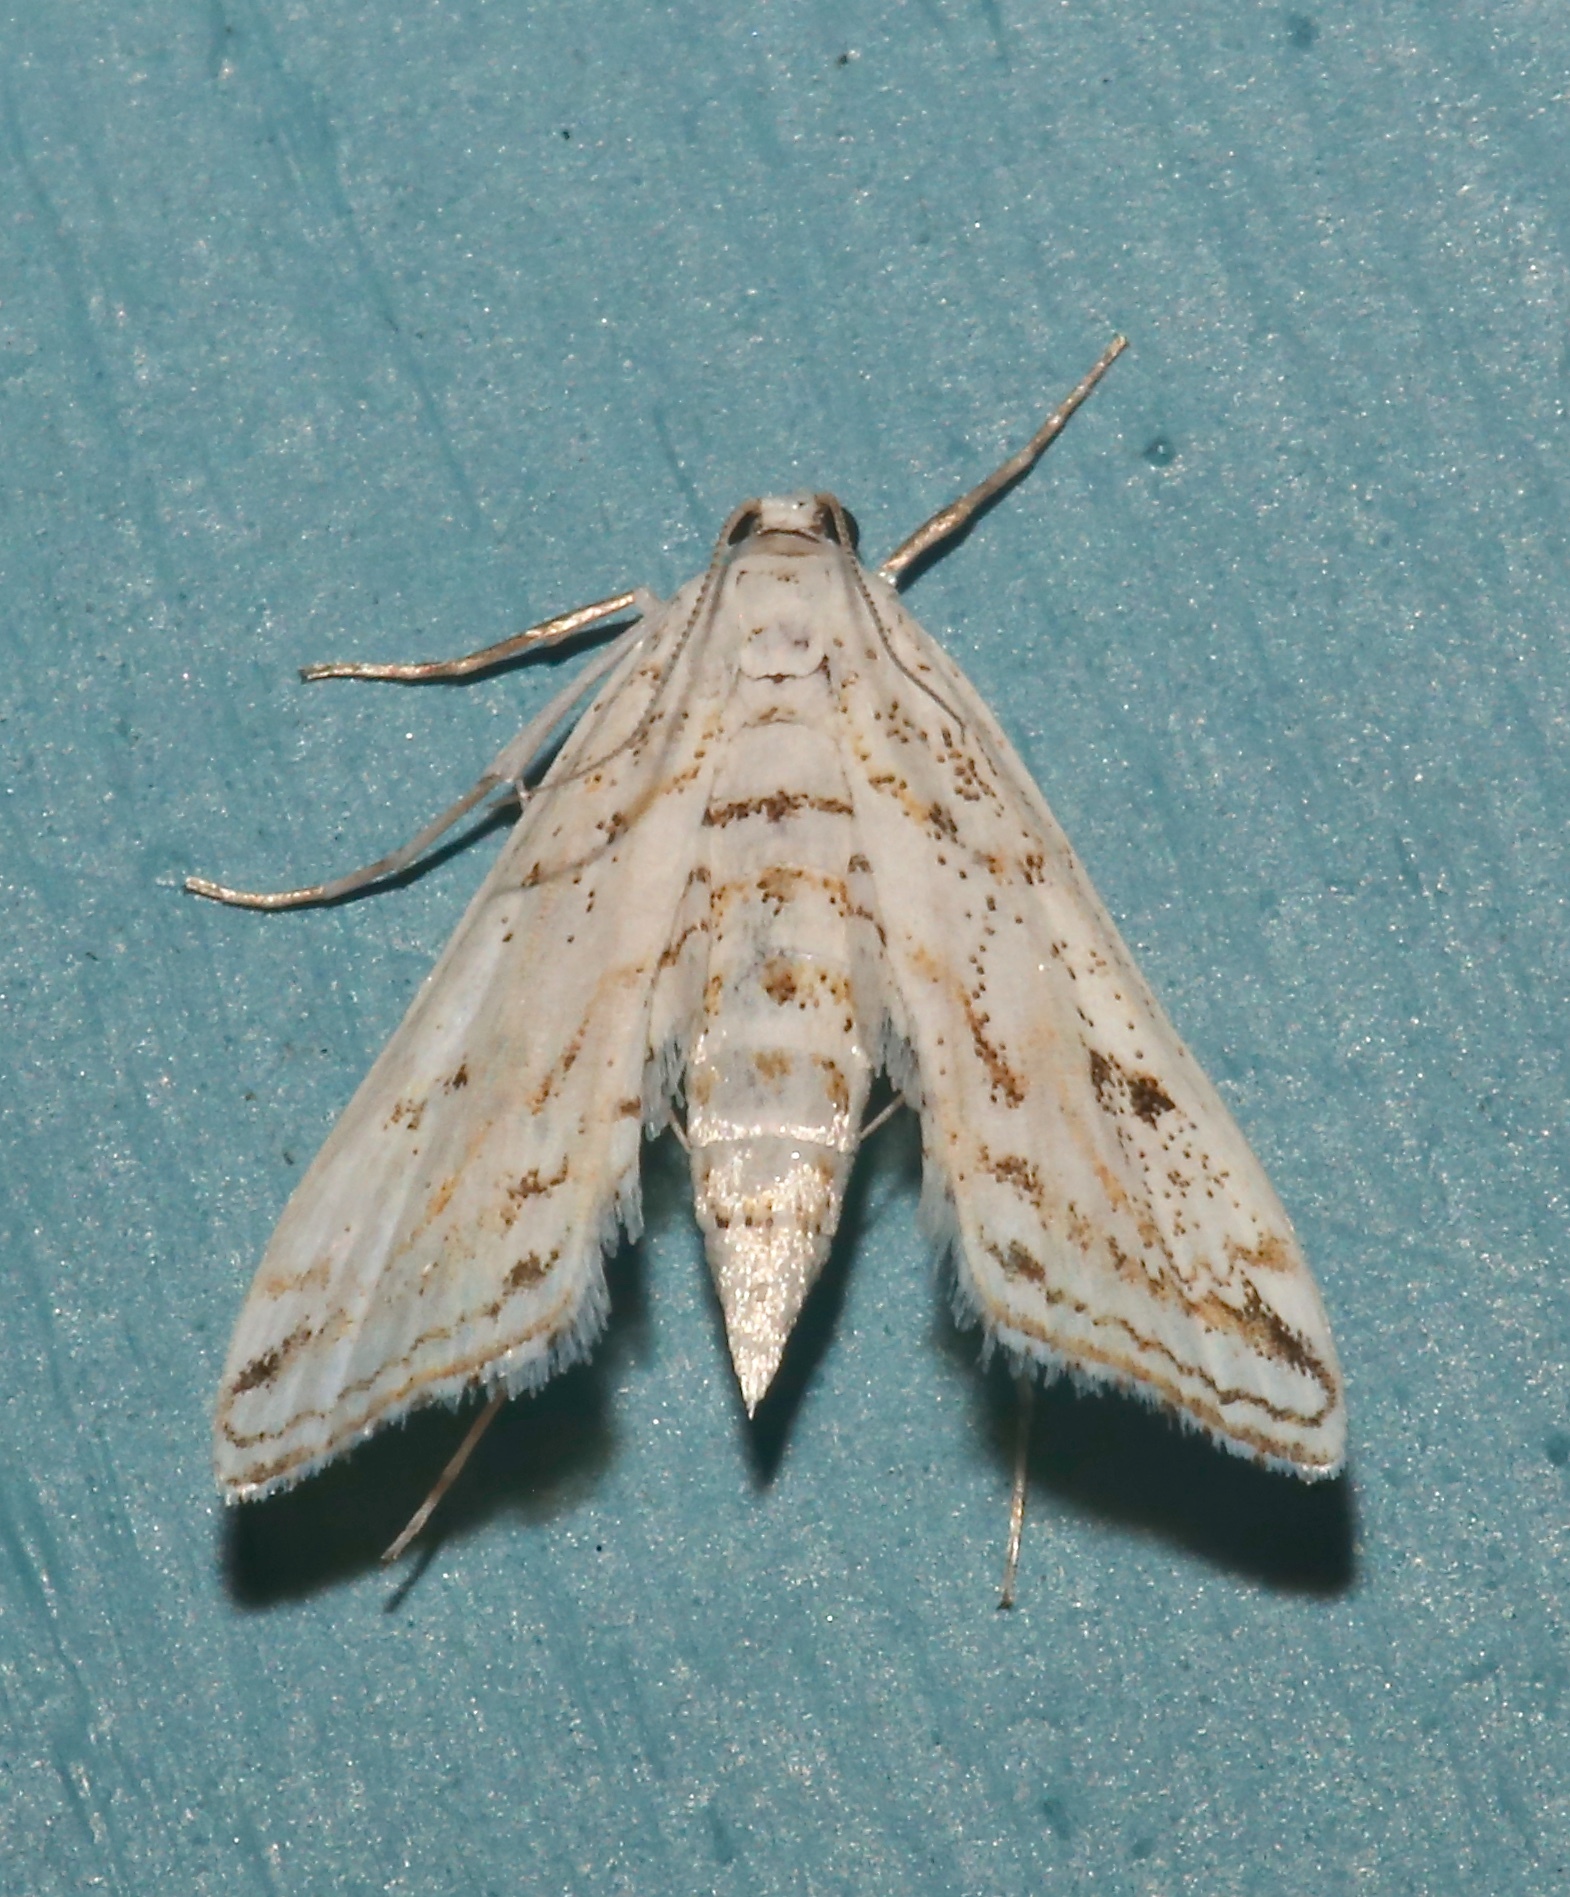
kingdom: Animalia
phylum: Arthropoda
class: Insecta
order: Lepidoptera
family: Crambidae
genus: Parapoynx
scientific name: Parapoynx allionealis
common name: Bladderwort casemaker
